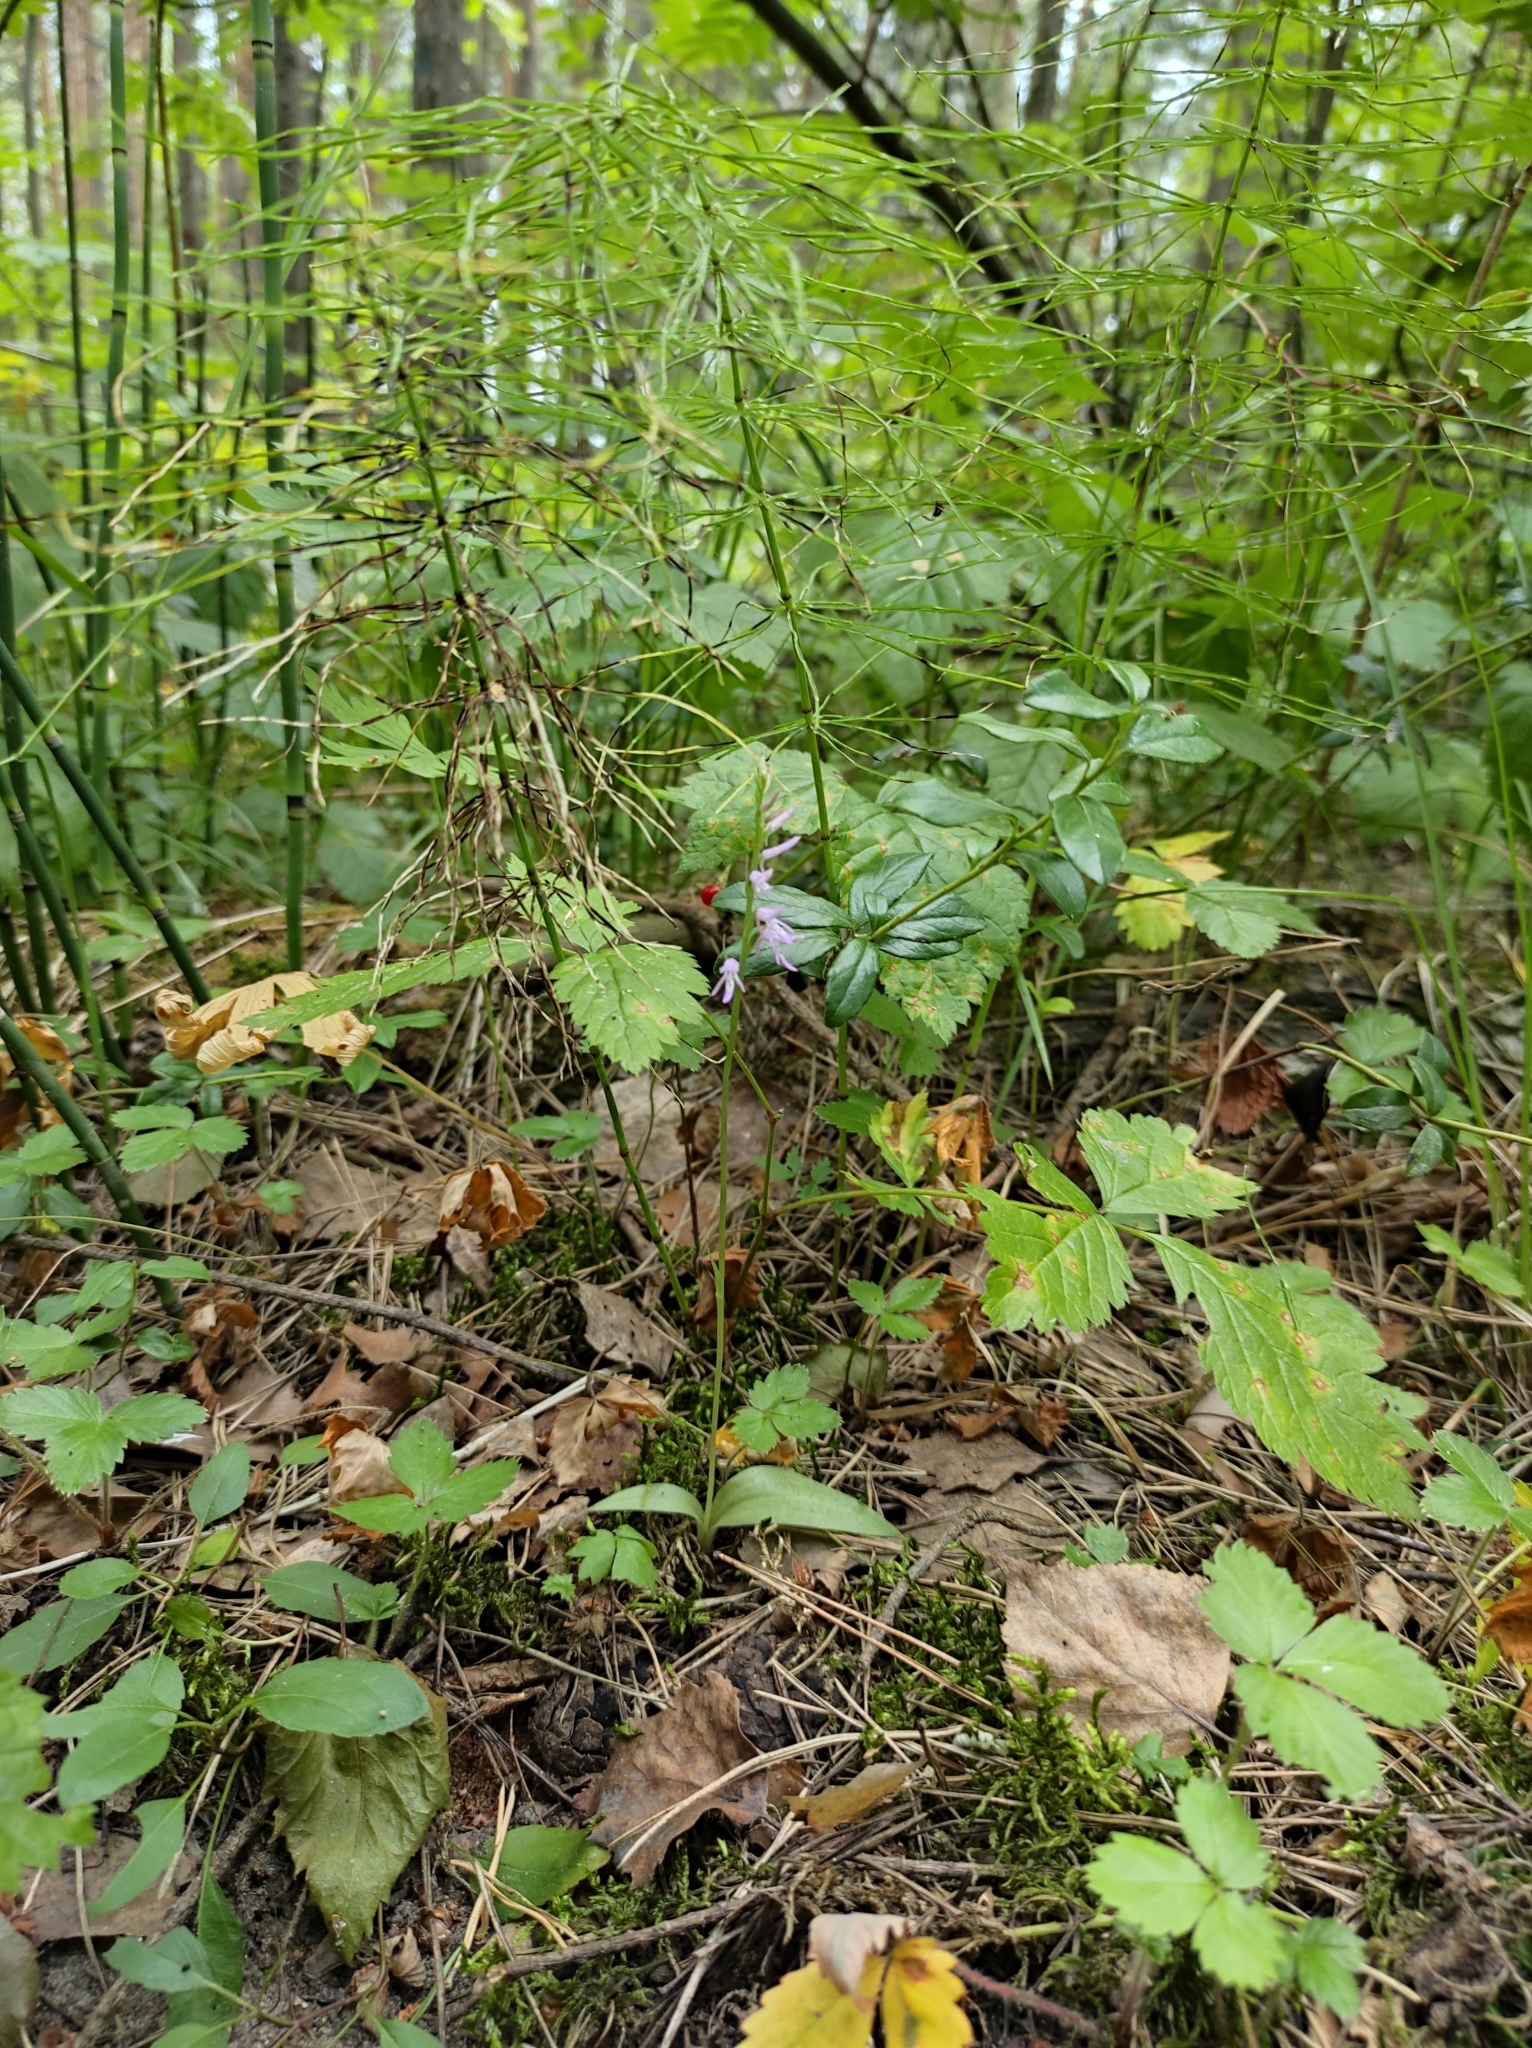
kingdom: Plantae
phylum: Tracheophyta
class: Liliopsida
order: Asparagales
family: Orchidaceae
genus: Hemipilia
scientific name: Hemipilia cucullata
